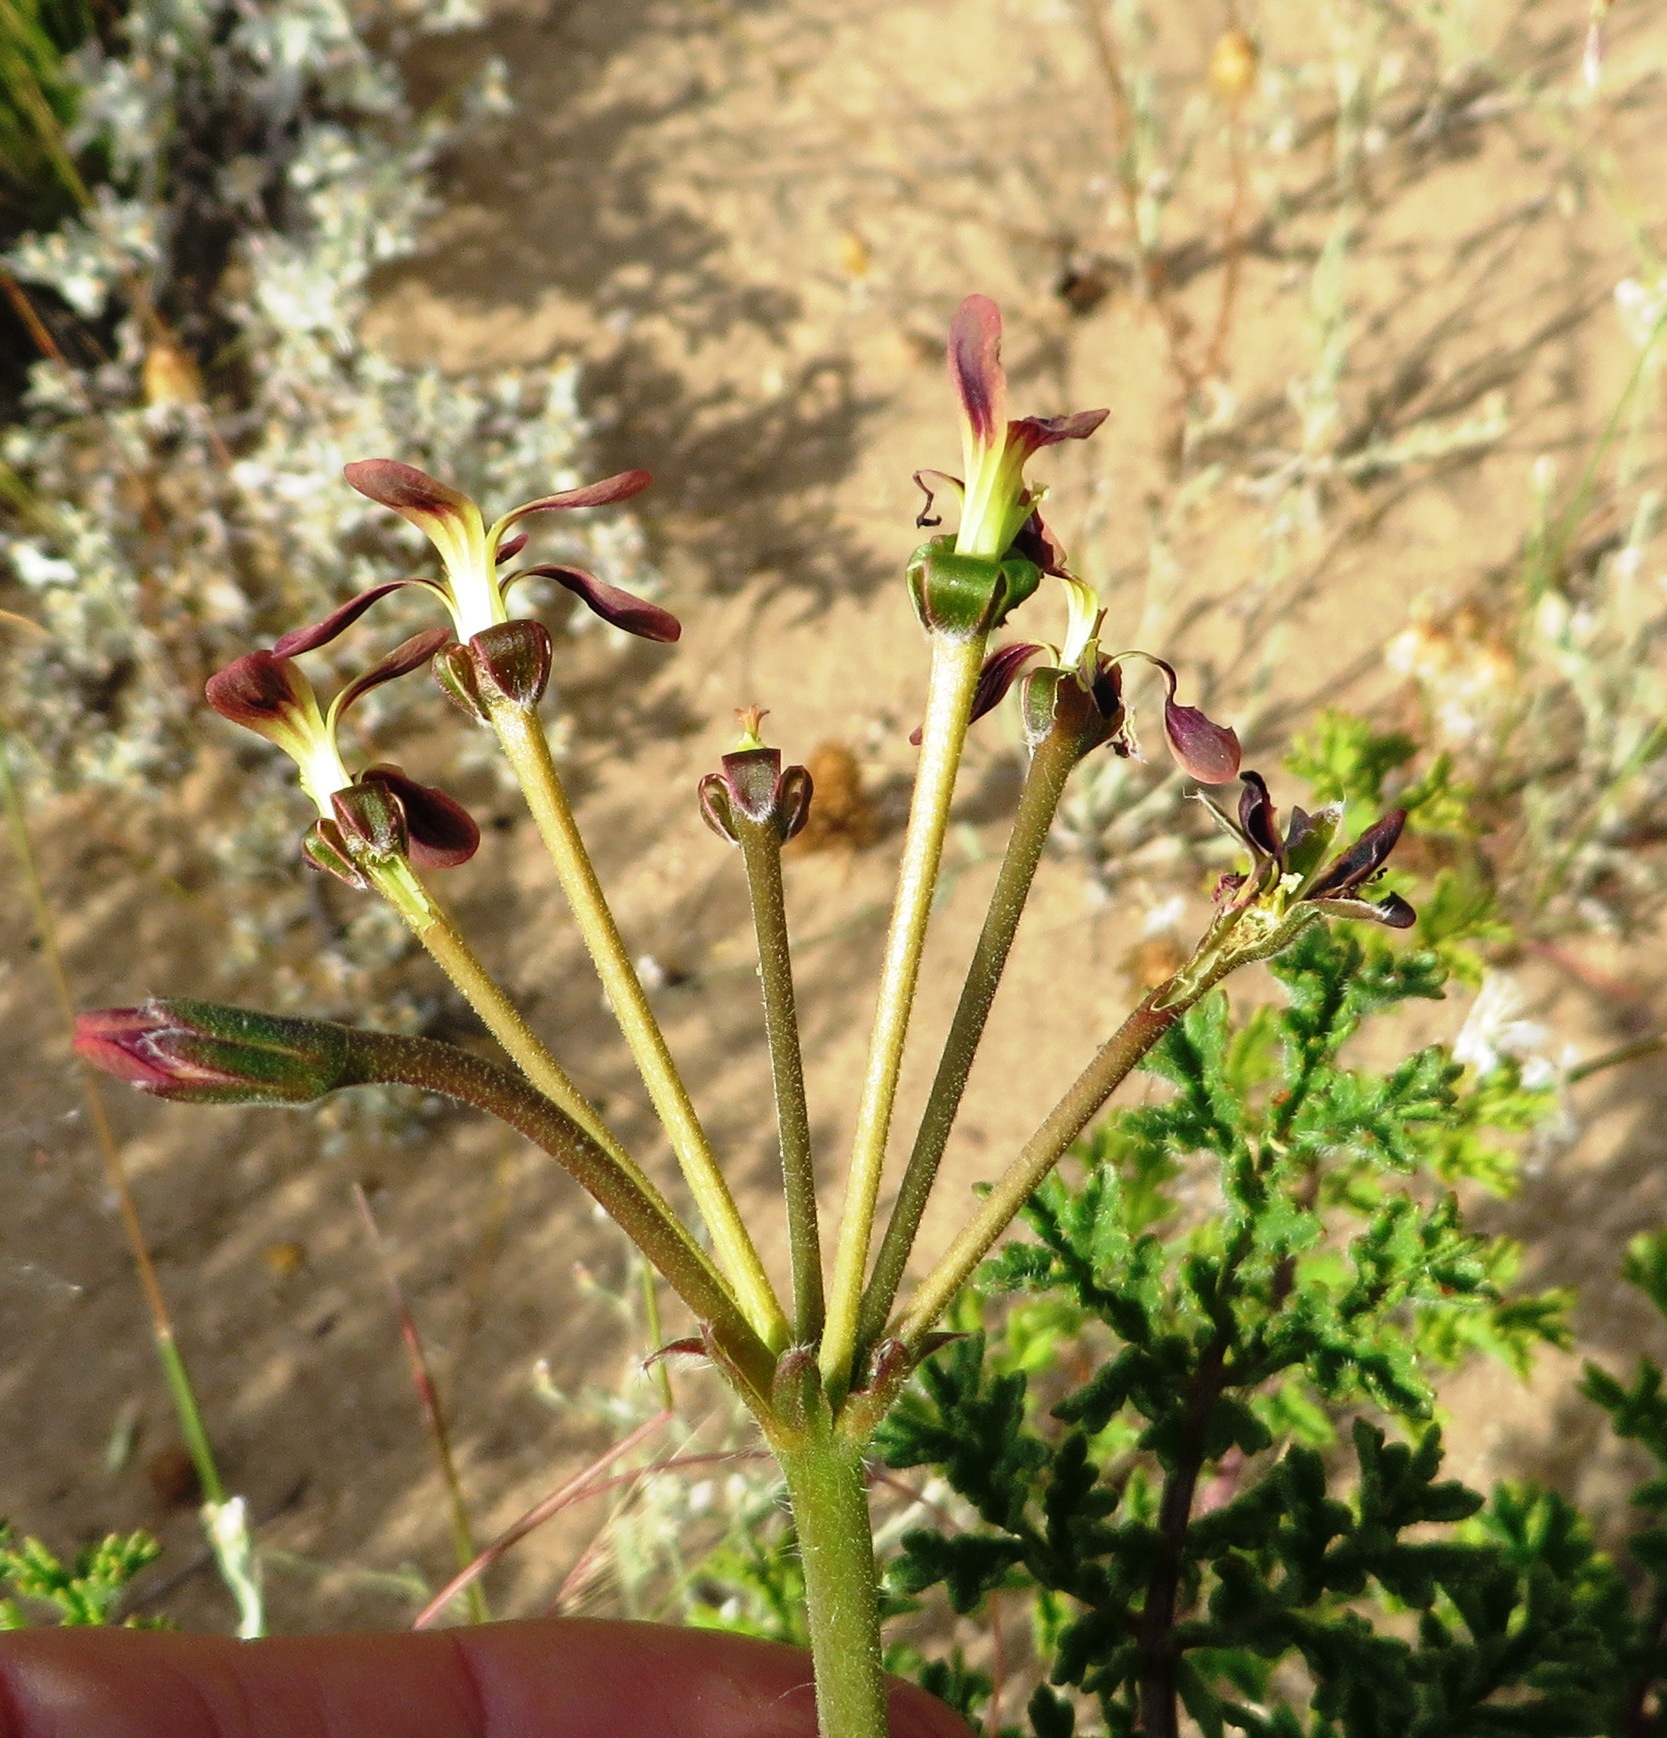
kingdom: Plantae
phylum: Tracheophyta
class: Magnoliopsida
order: Geraniales
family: Geraniaceae
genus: Pelargonium
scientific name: Pelargonium triste
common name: Night-scent pelargonium
